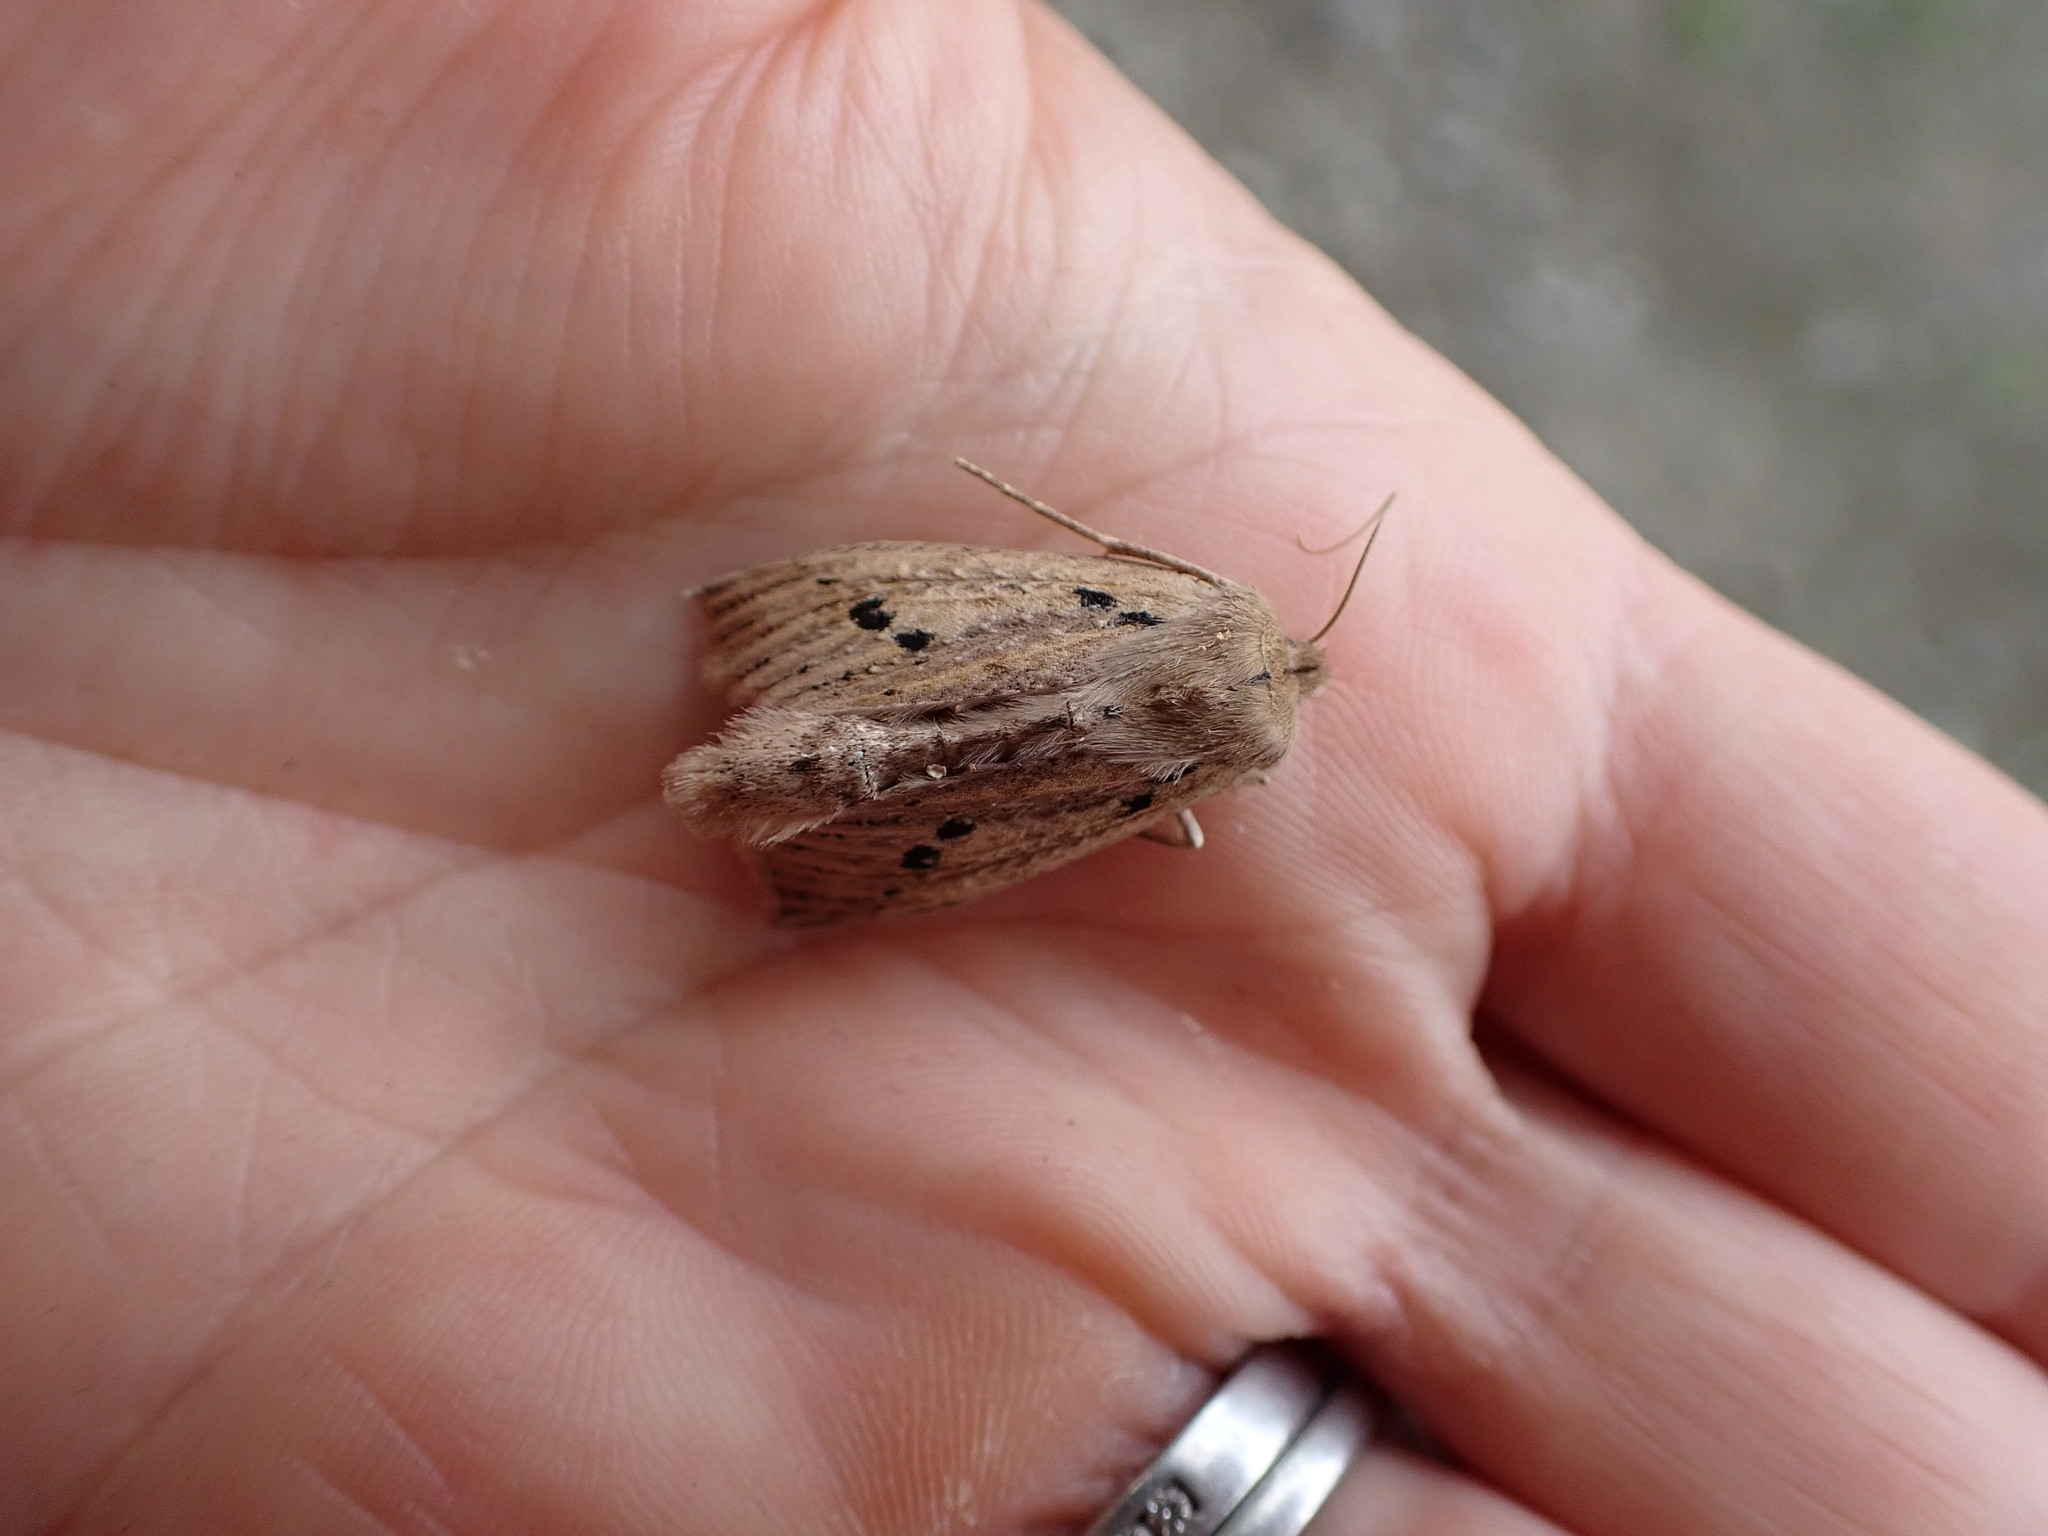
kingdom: Animalia
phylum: Arthropoda
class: Insecta
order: Lepidoptera
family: Geometridae
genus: Declana
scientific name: Declana leptomera
